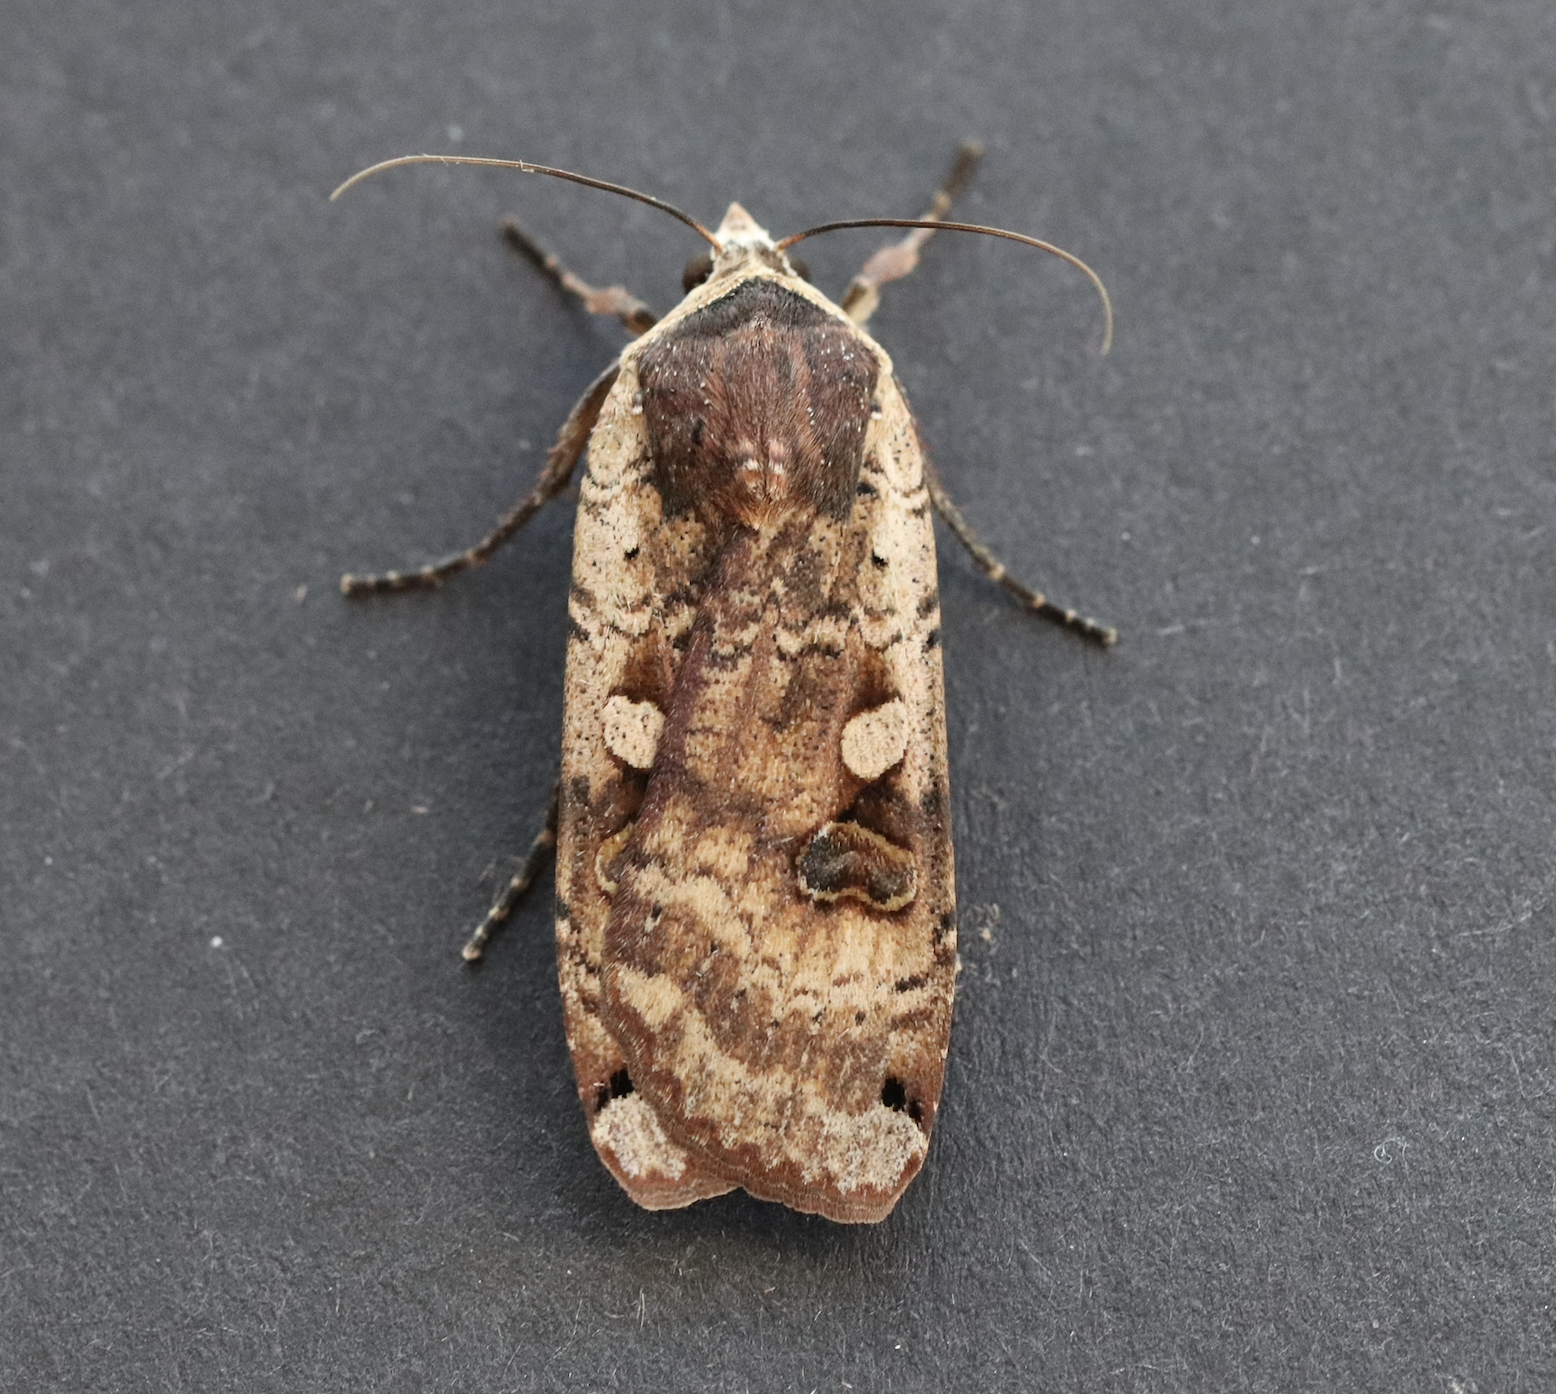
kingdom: Animalia
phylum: Arthropoda
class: Insecta
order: Lepidoptera
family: Noctuidae
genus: Noctua
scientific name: Noctua pronuba
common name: Large yellow underwing
